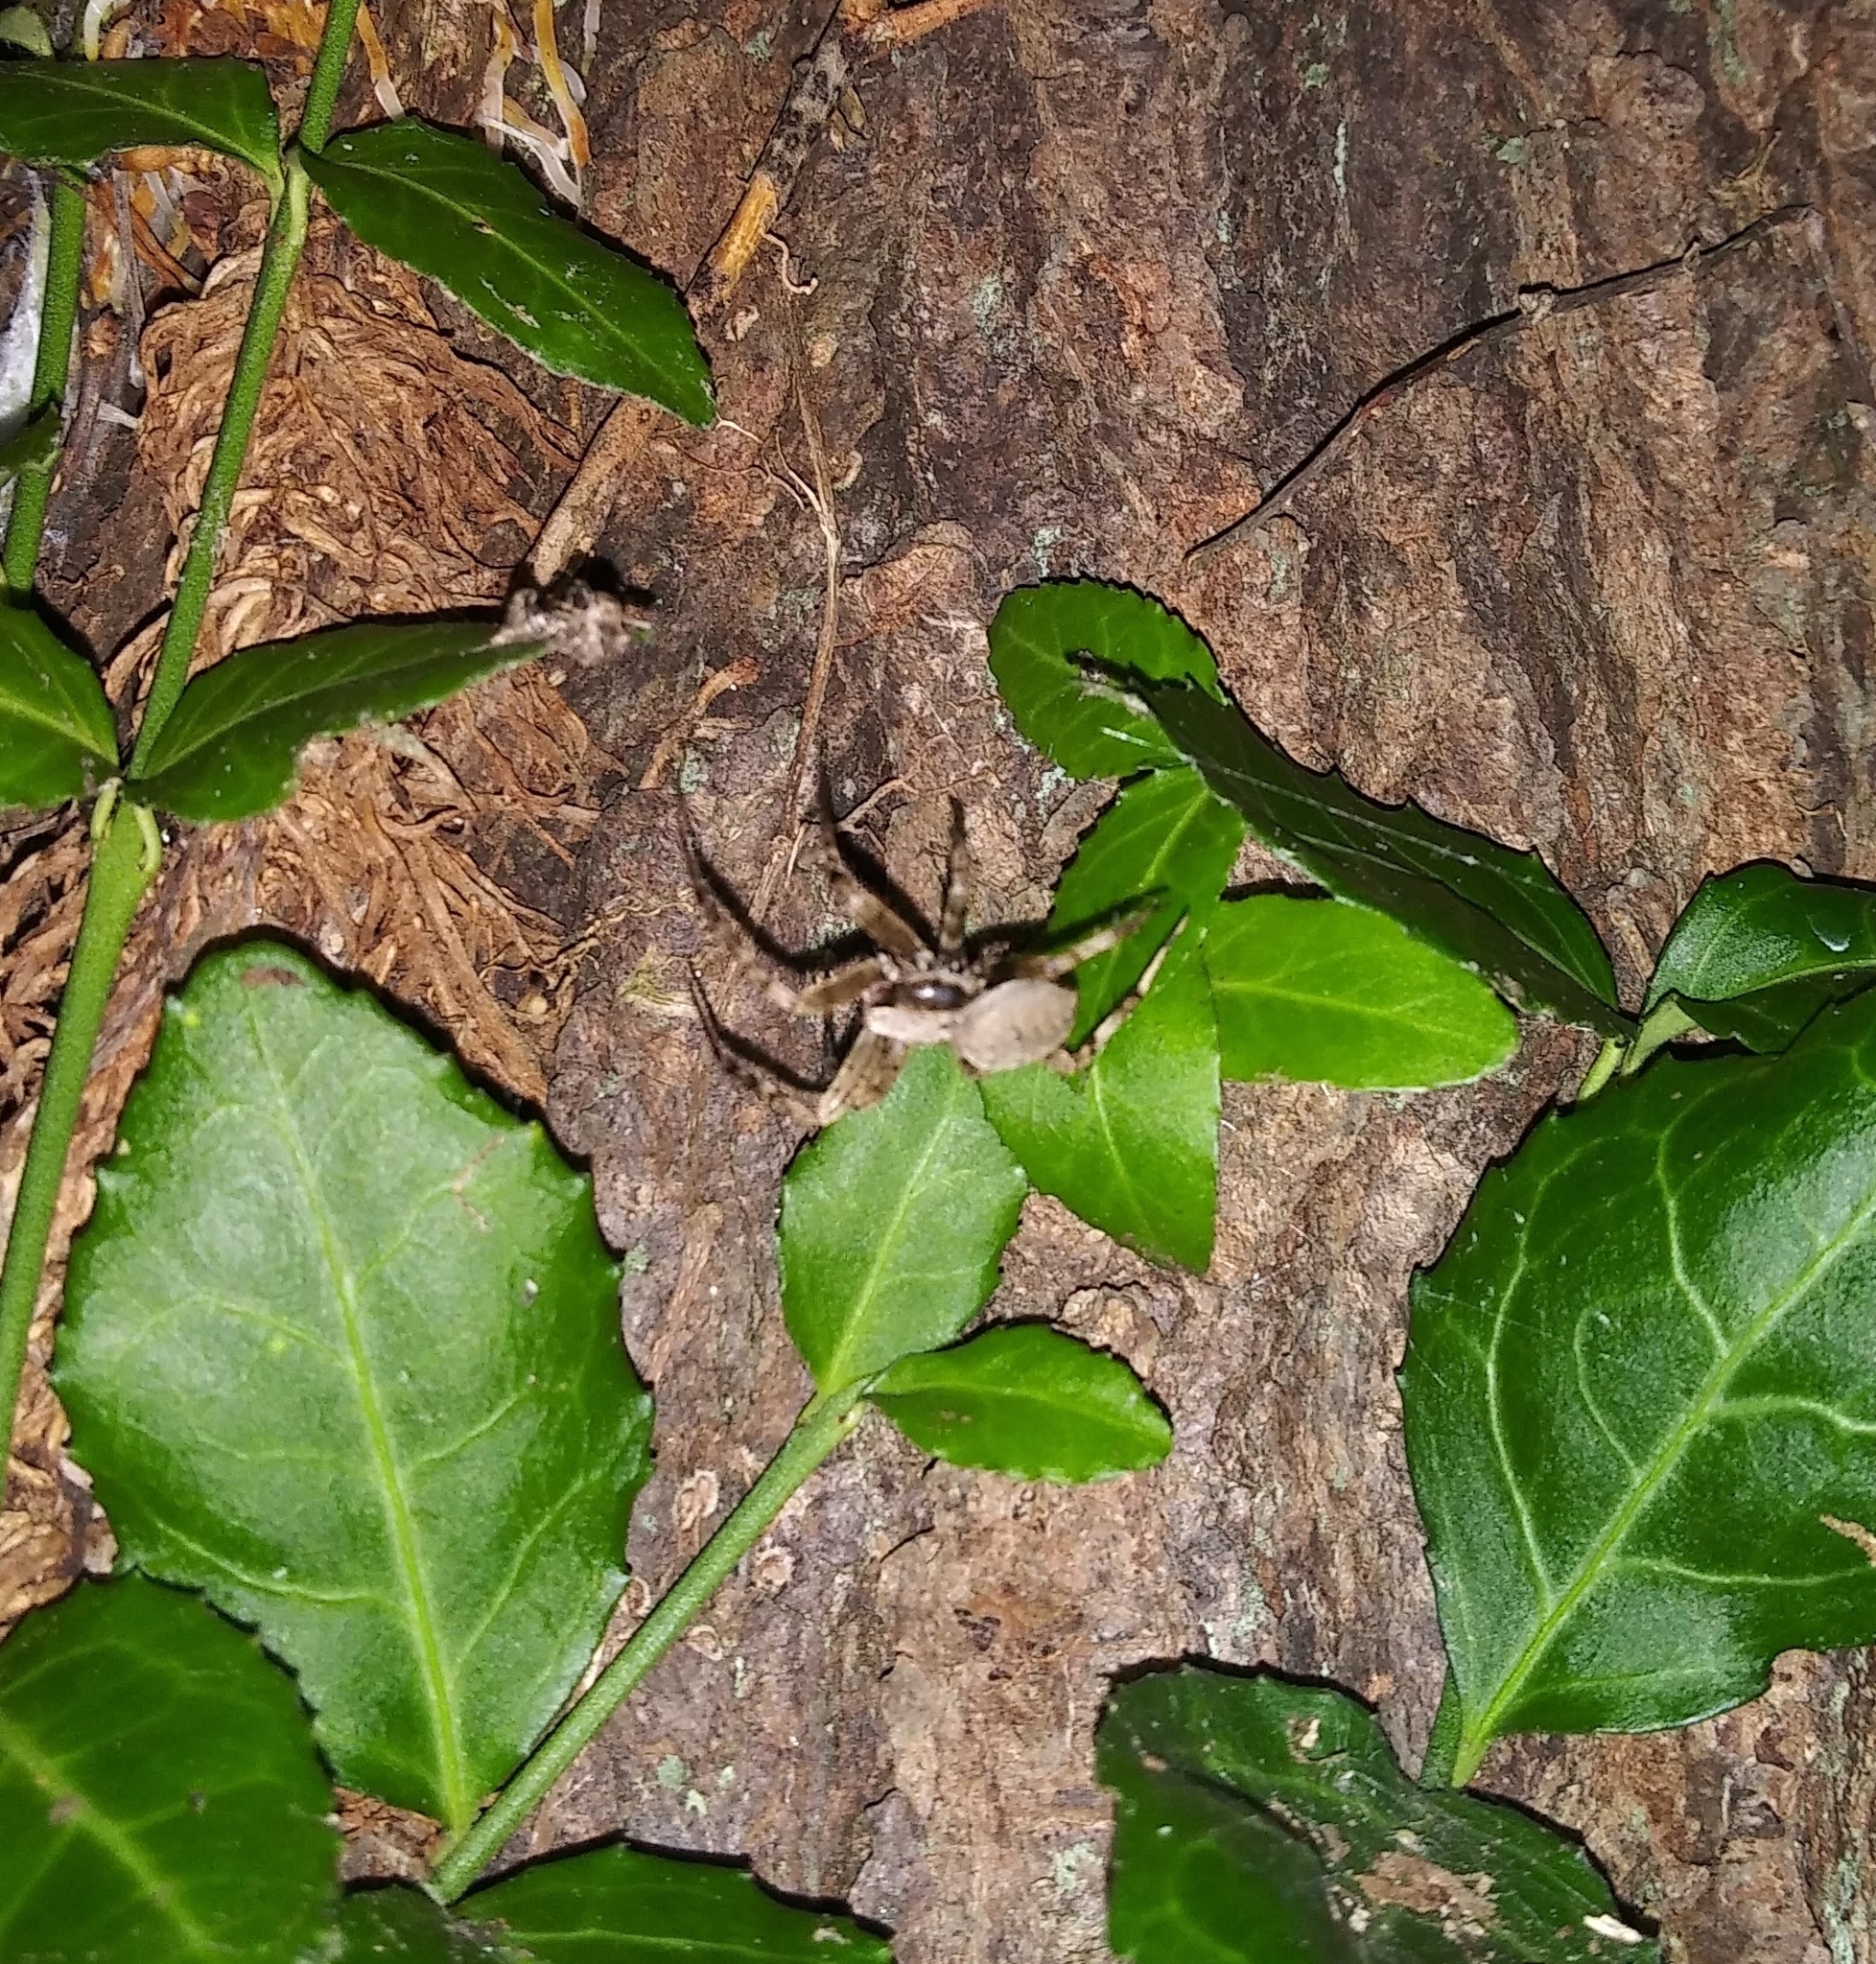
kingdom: Animalia
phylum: Arthropoda
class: Arachnida
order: Araneae
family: Araneidae
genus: Neoscona
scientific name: Neoscona
